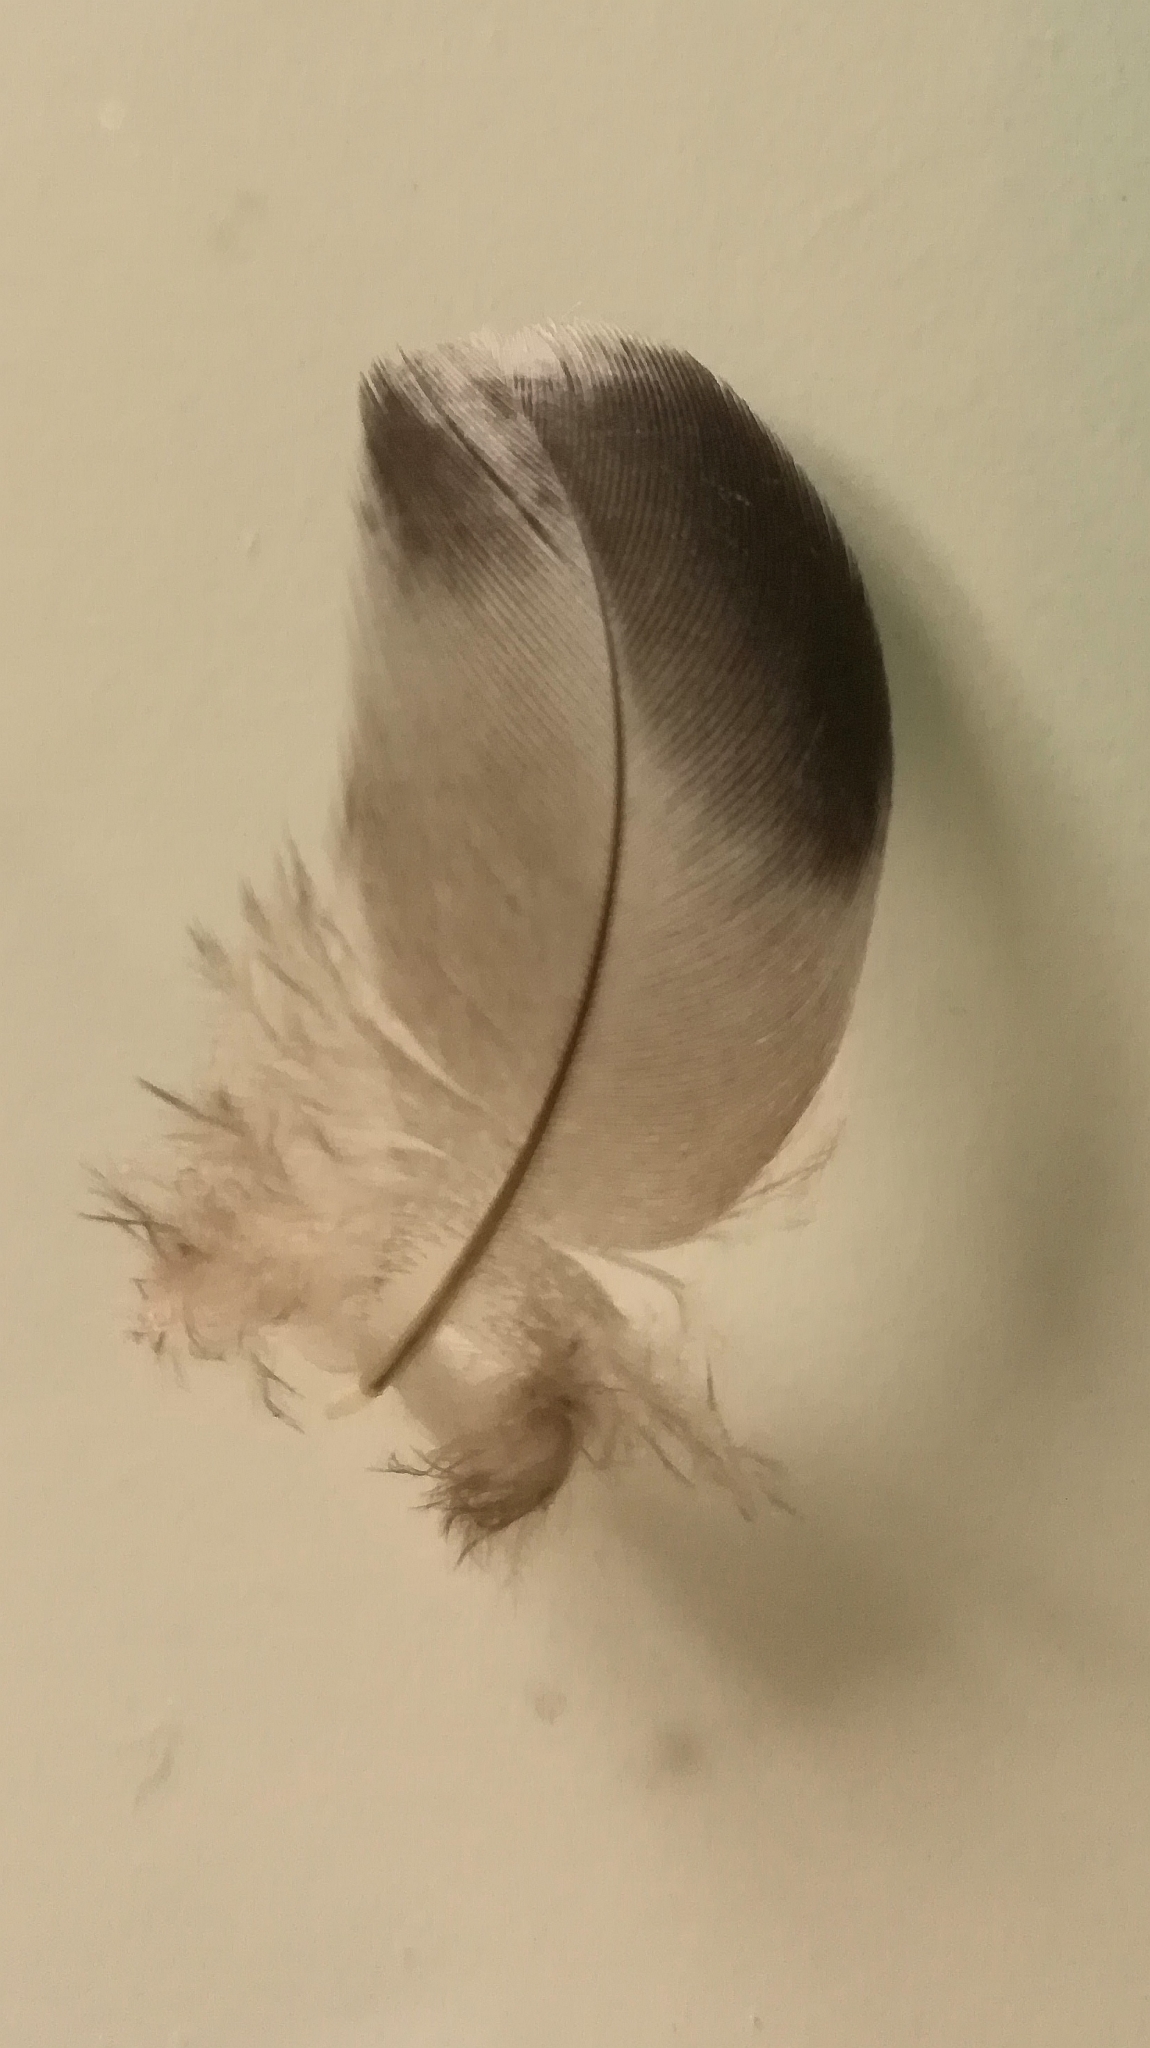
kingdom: Animalia
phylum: Chordata
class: Aves
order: Columbiformes
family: Columbidae
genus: Columba
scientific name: Columba livia
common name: Rock pigeon
